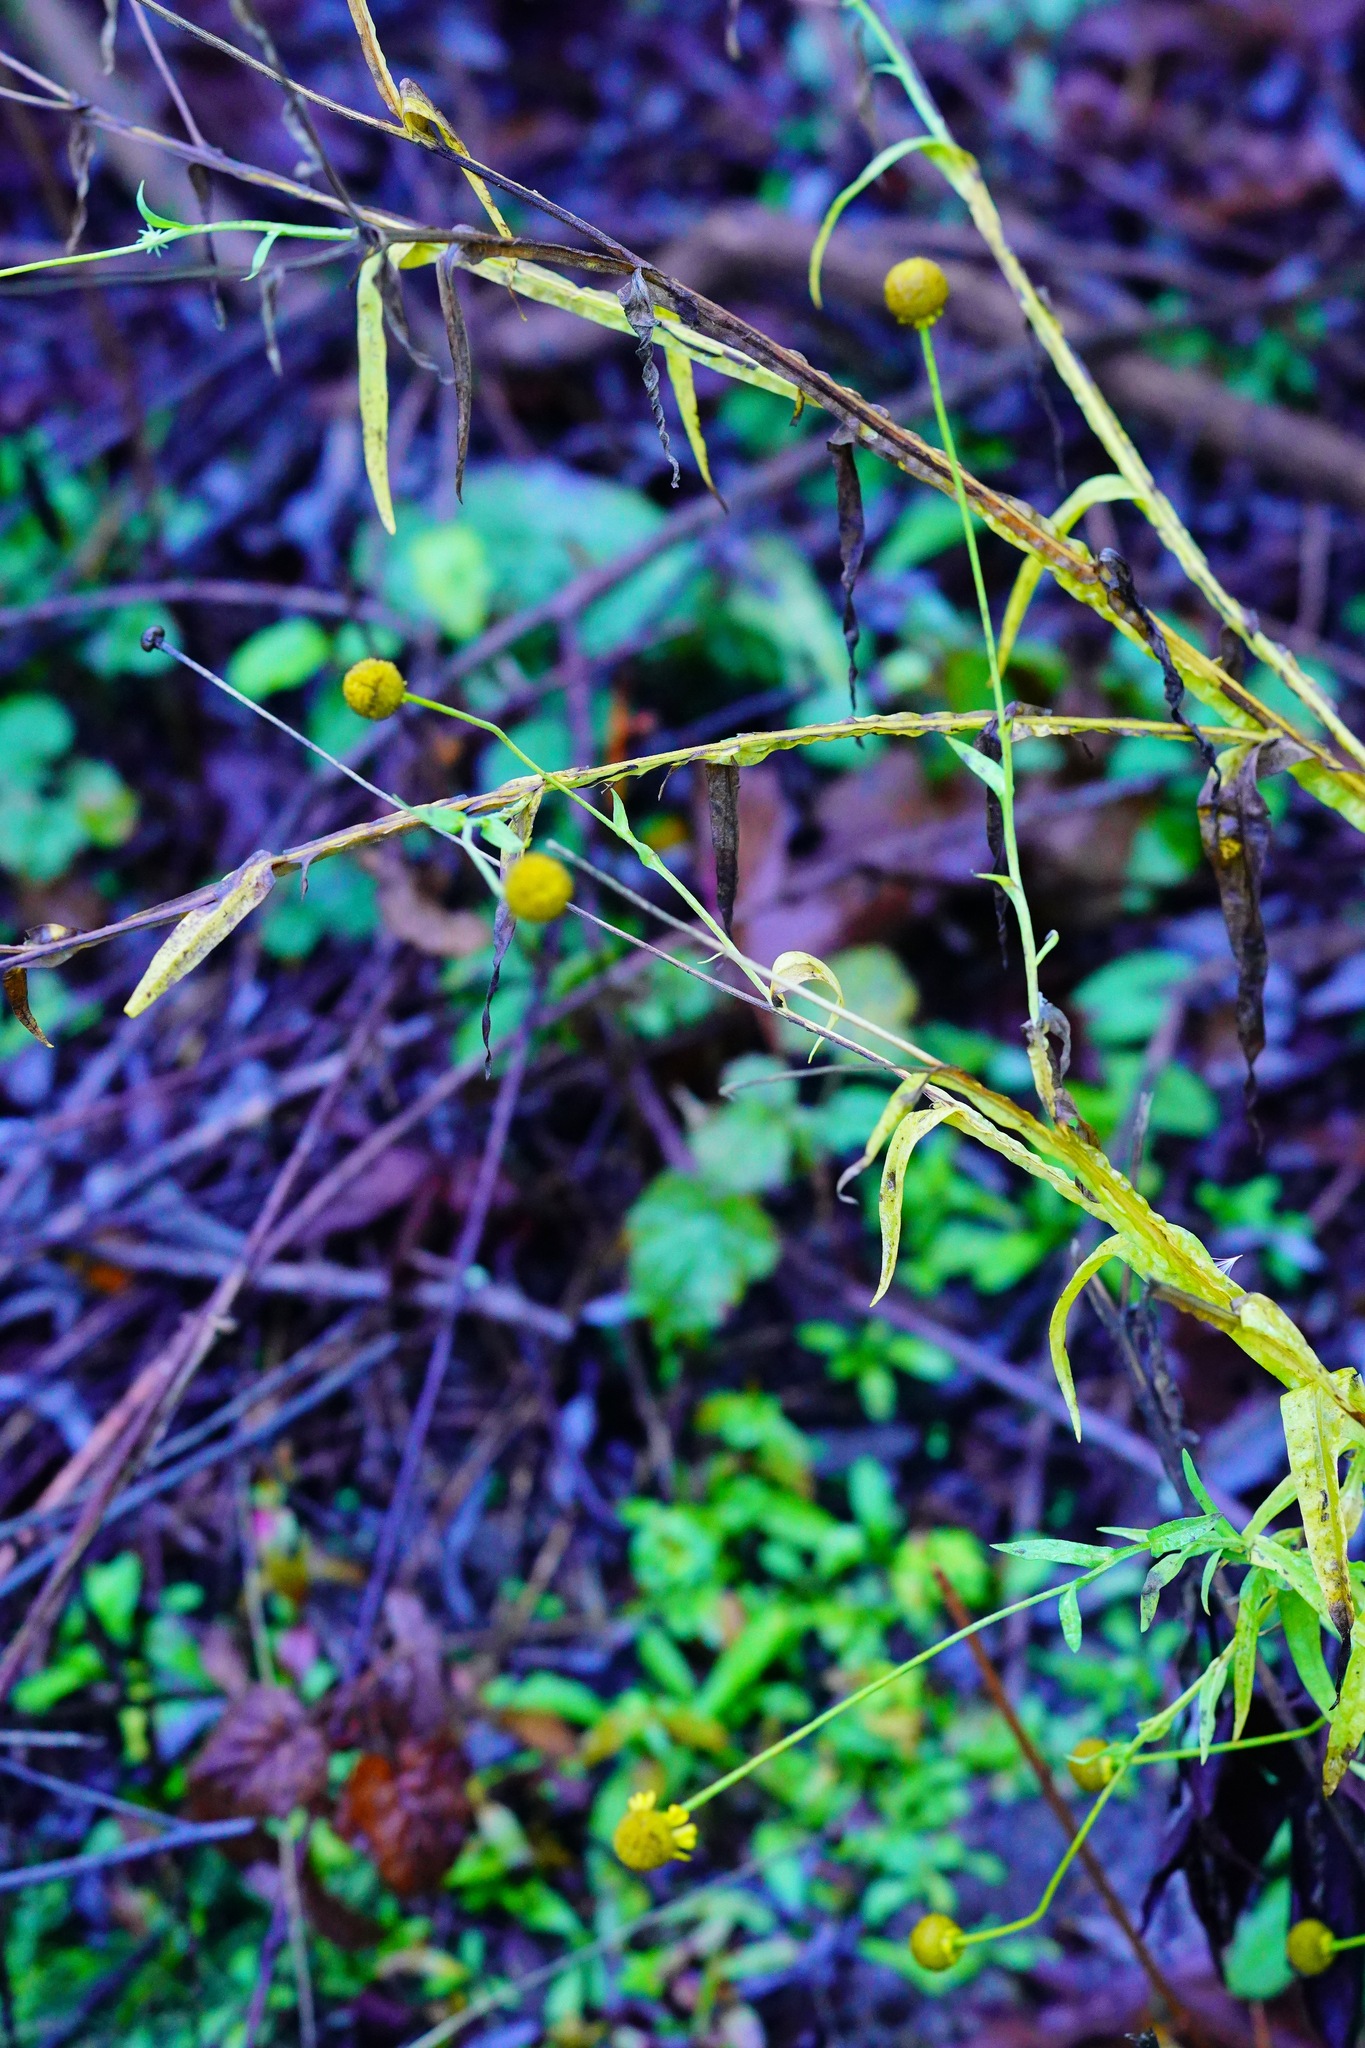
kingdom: Plantae
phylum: Tracheophyta
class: Magnoliopsida
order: Asterales
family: Asteraceae
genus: Helenium
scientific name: Helenium puberulum
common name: Sneezewort
